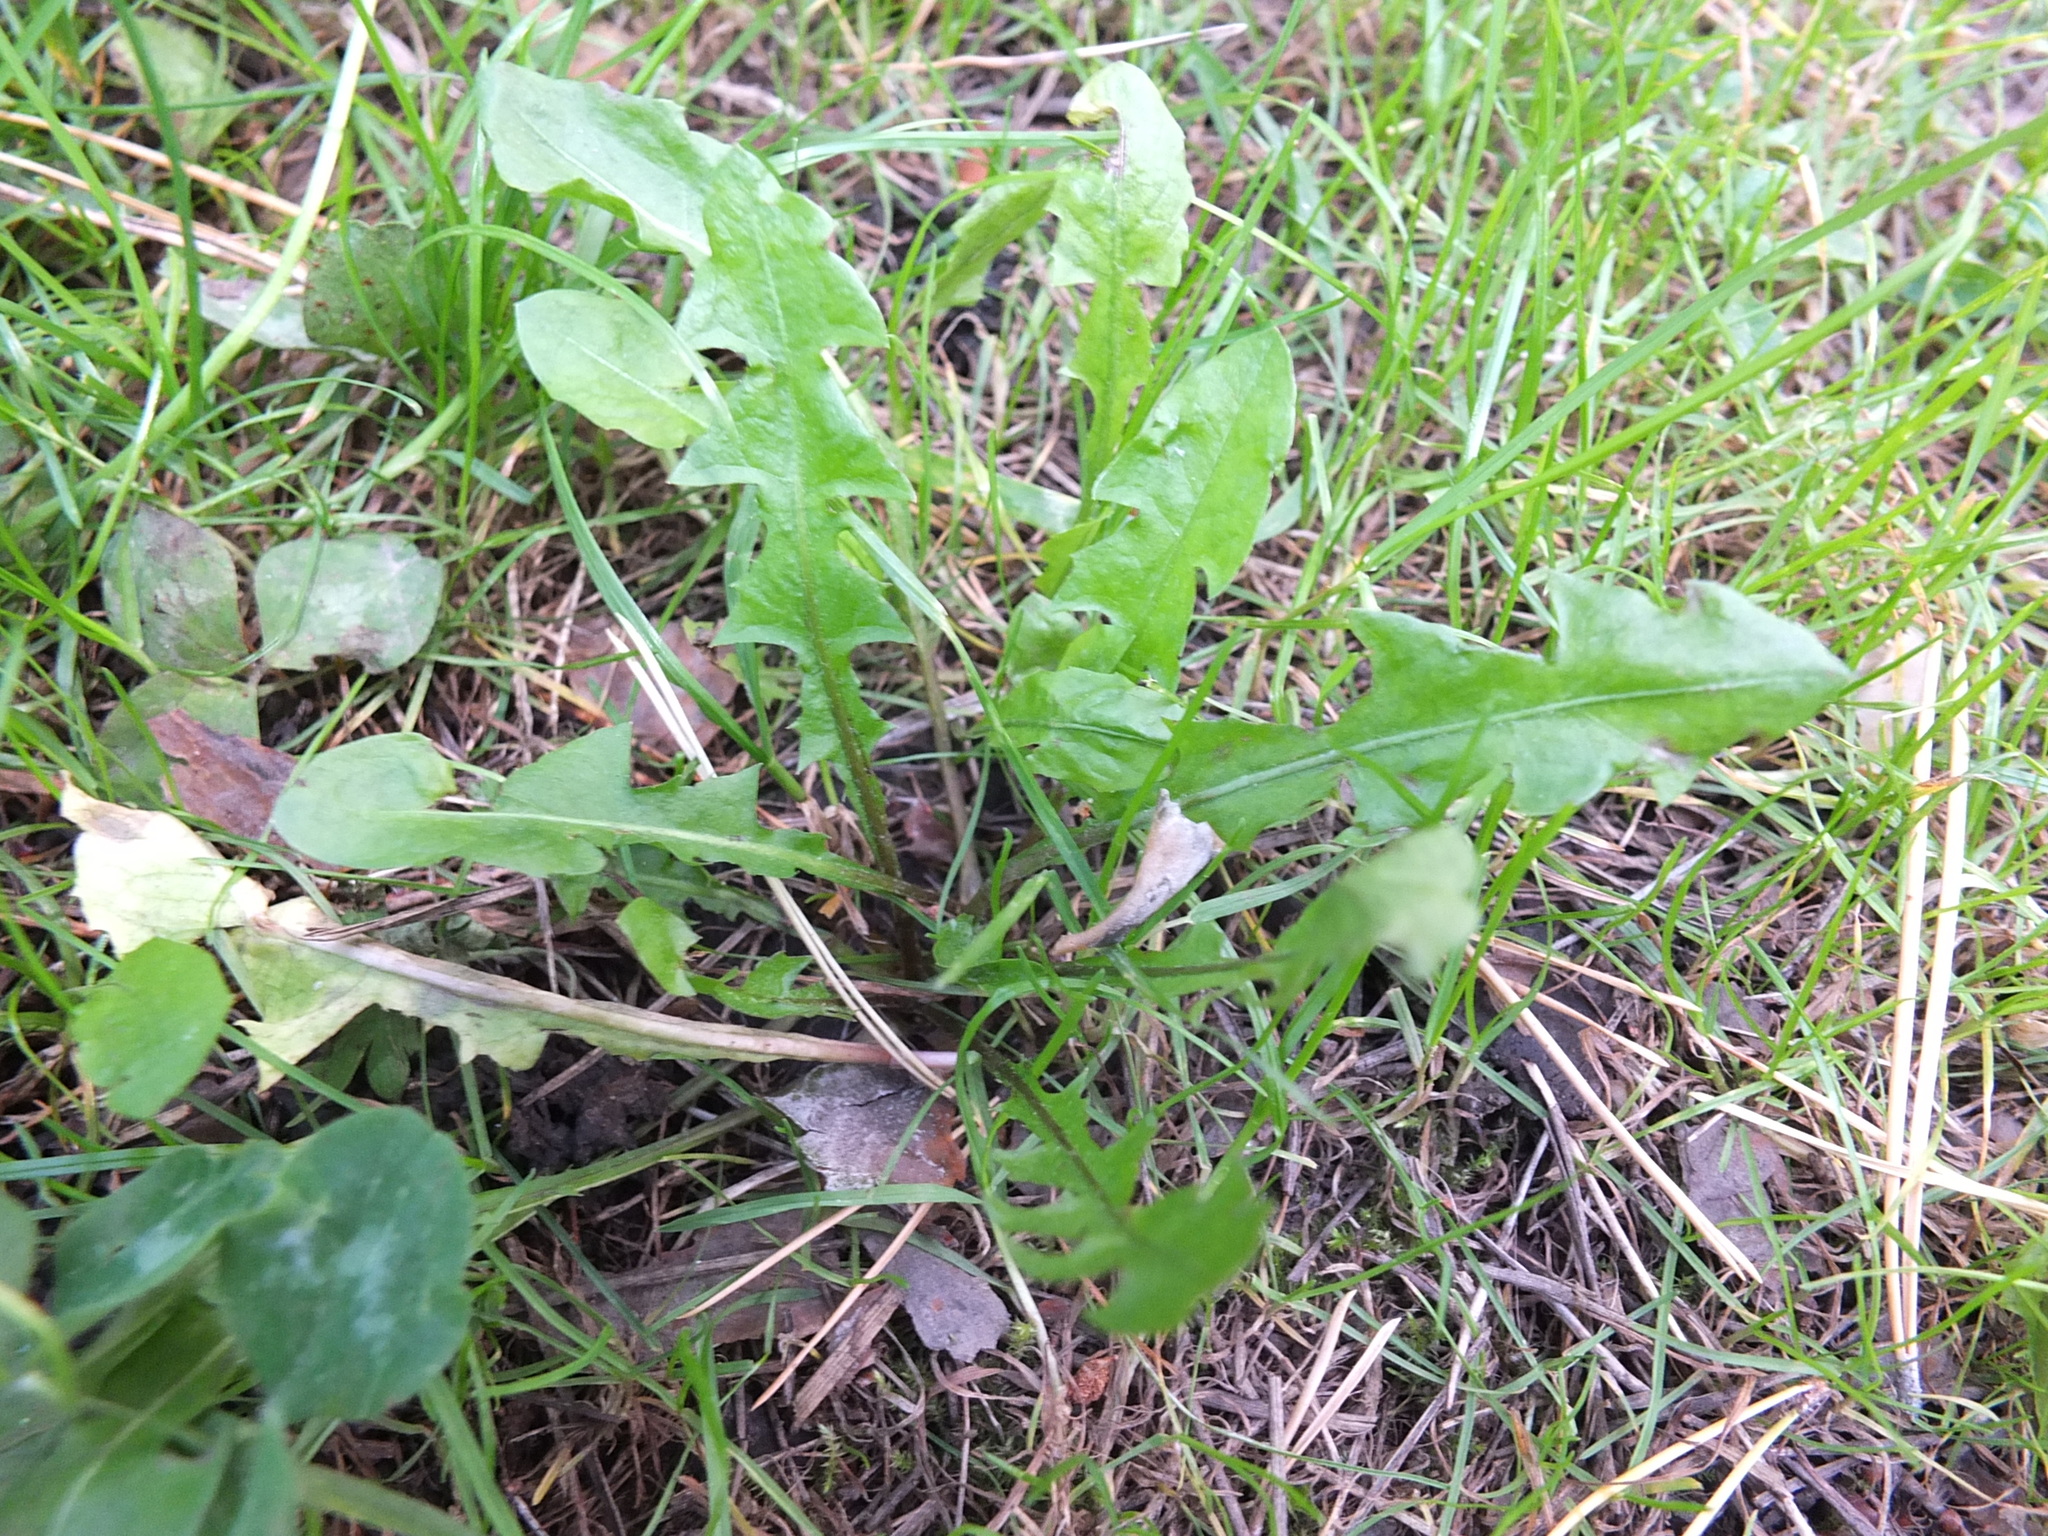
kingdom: Plantae
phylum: Tracheophyta
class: Magnoliopsida
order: Asterales
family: Asteraceae
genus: Taraxacum
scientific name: Taraxacum officinale
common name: Common dandelion
